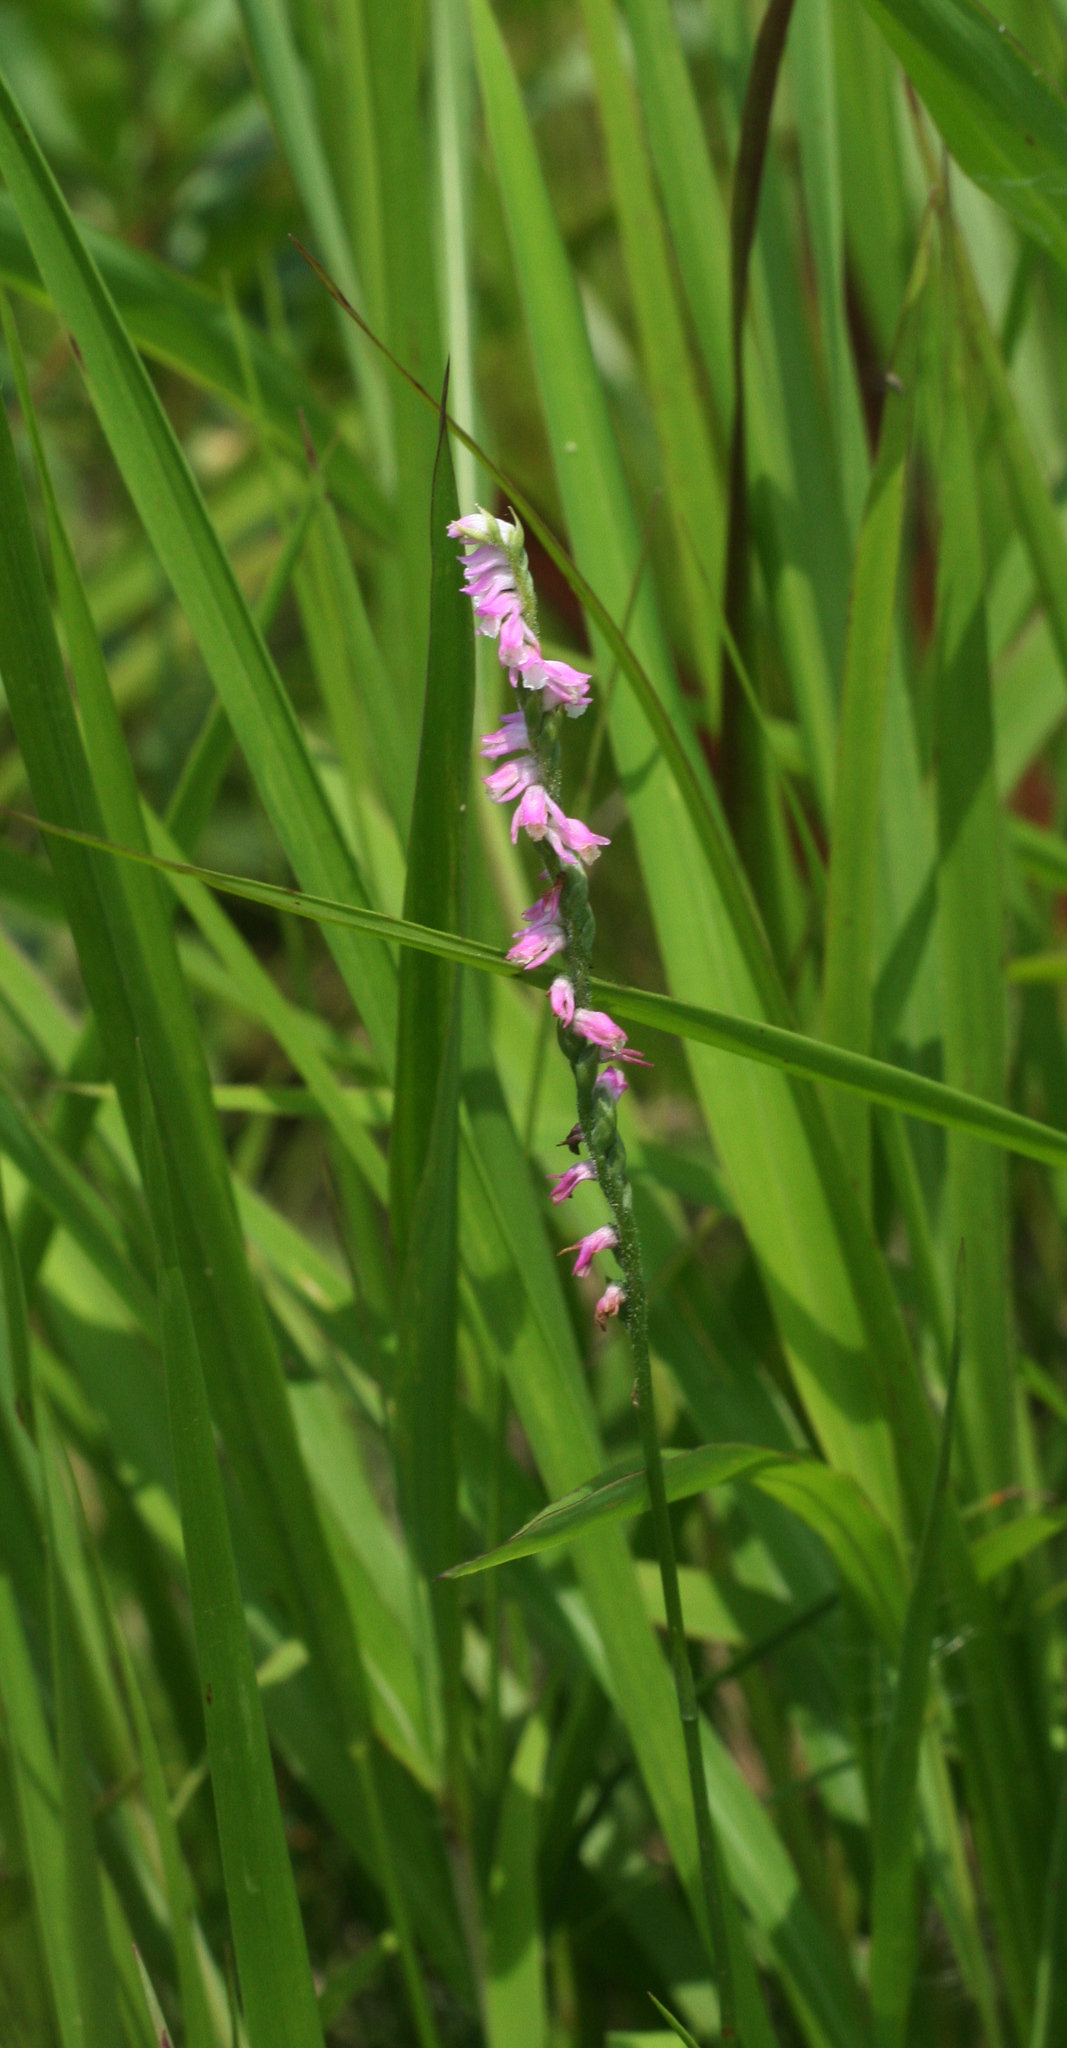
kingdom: Plantae
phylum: Tracheophyta
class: Liliopsida
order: Asparagales
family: Orchidaceae
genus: Spiranthes
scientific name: Spiranthes australis
